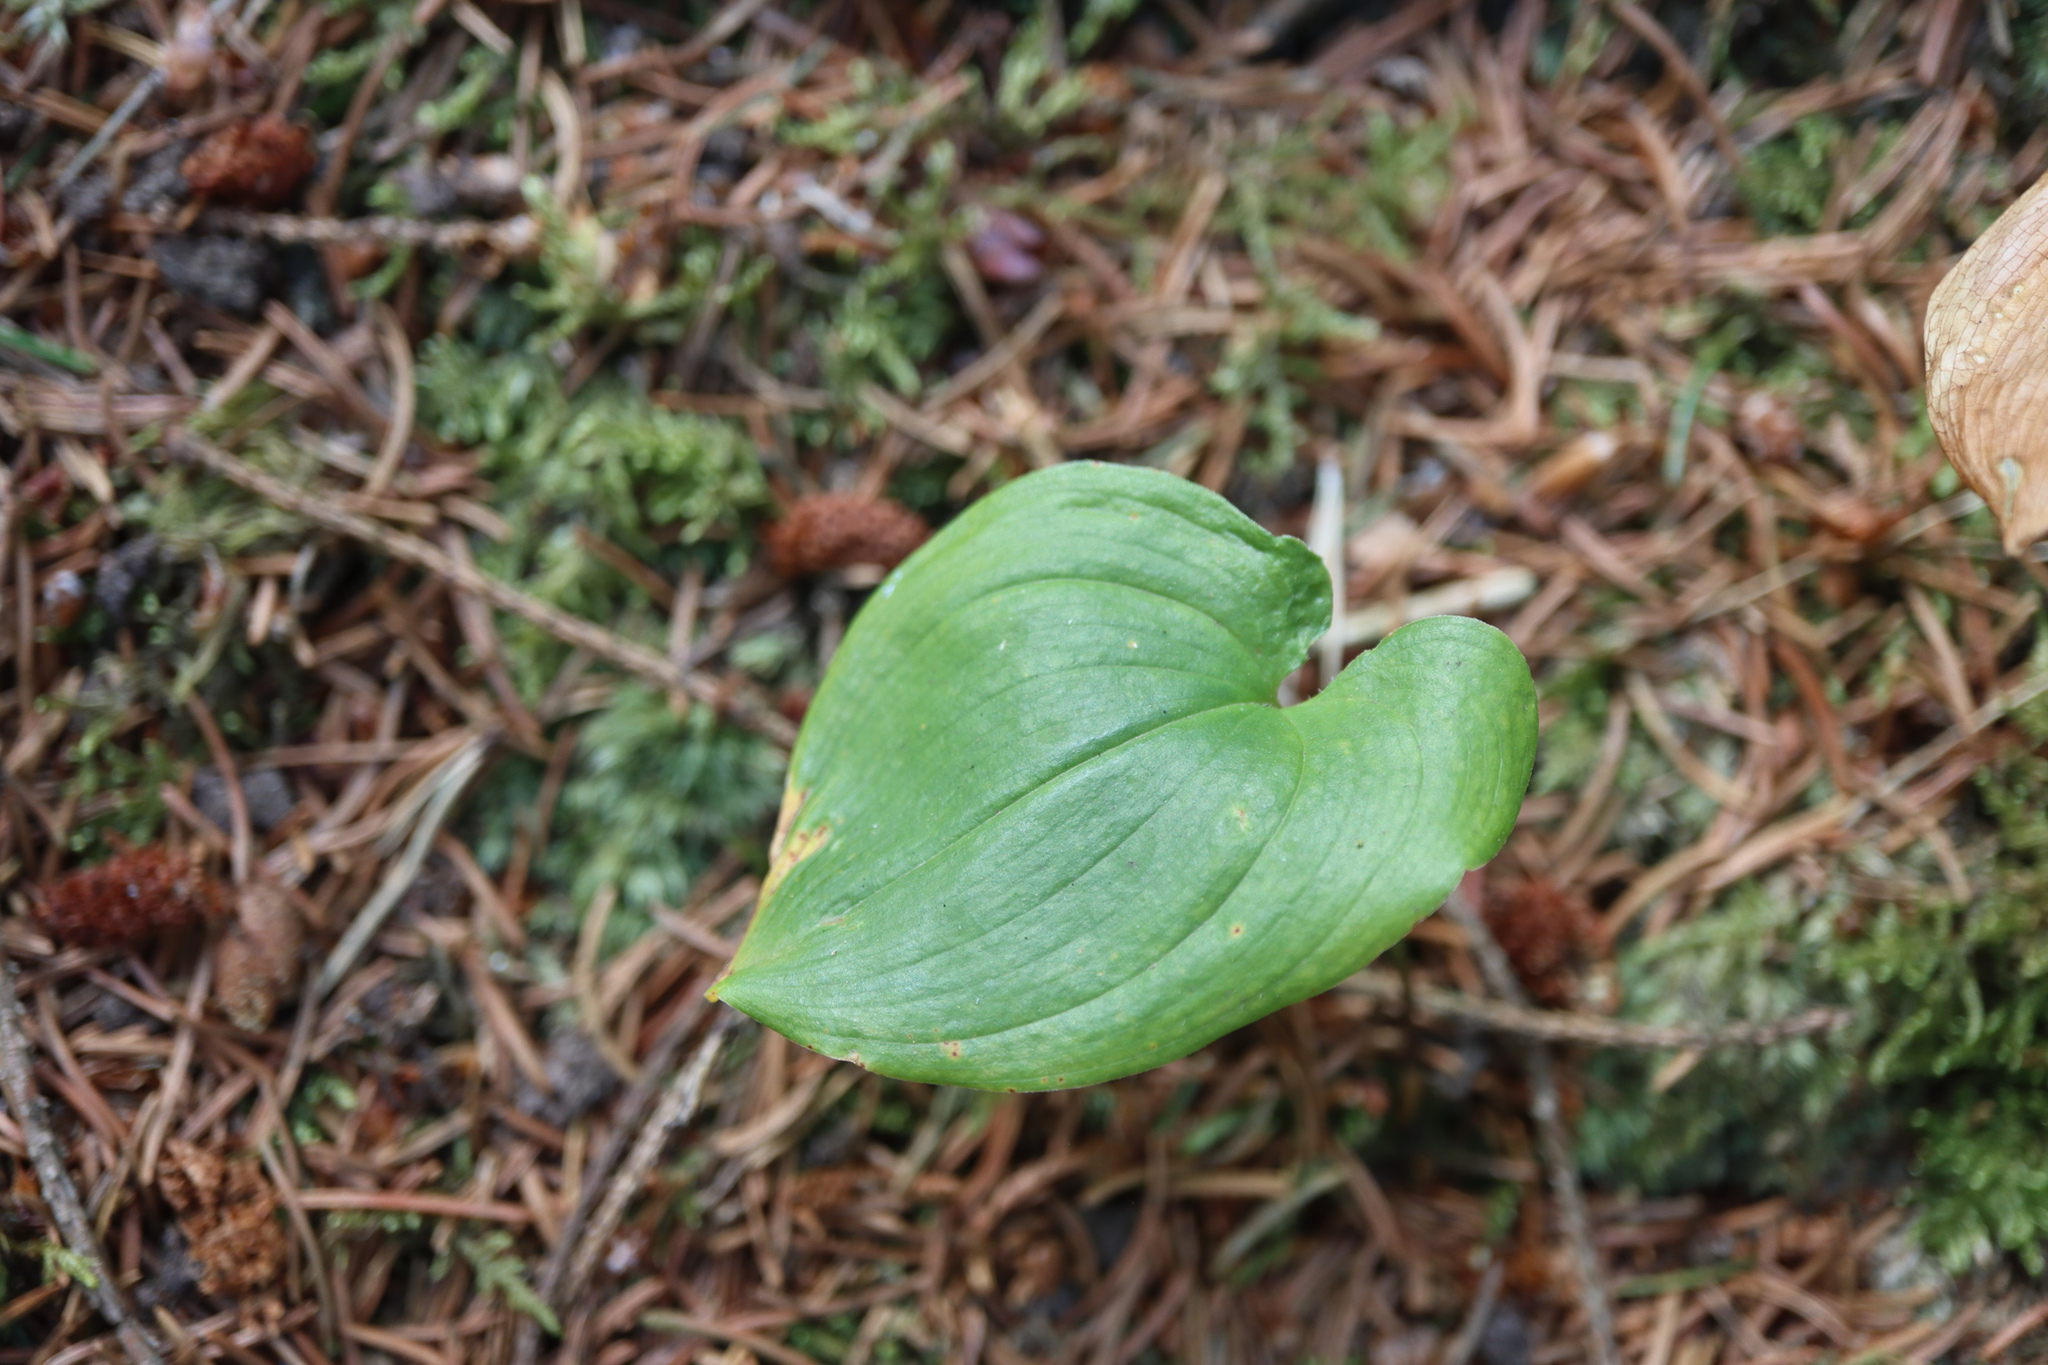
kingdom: Plantae
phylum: Tracheophyta
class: Liliopsida
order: Asparagales
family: Asparagaceae
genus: Maianthemum
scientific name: Maianthemum bifolium
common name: May lily
